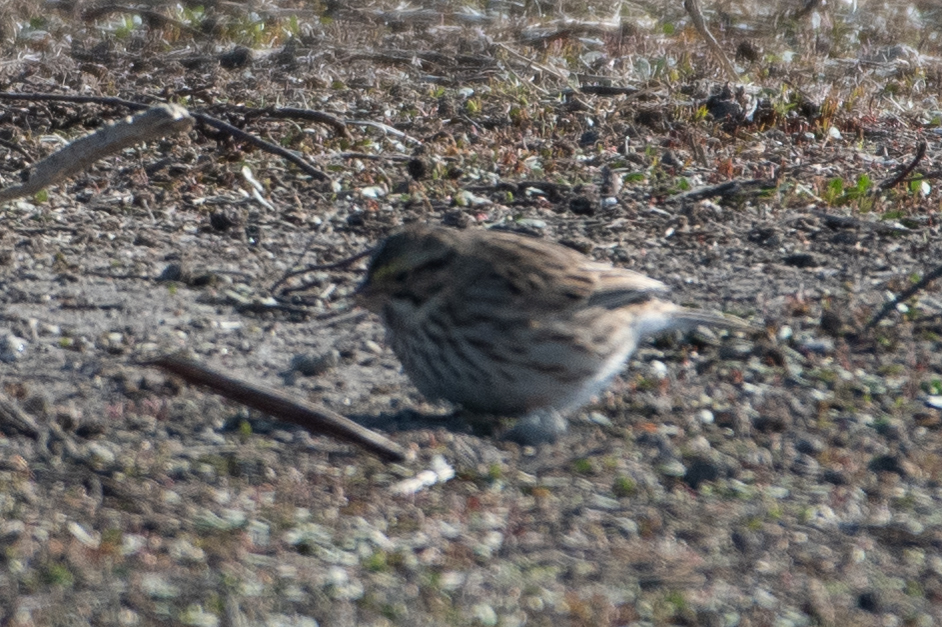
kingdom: Animalia
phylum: Chordata
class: Aves
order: Passeriformes
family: Passerellidae
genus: Passerculus
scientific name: Passerculus sandwichensis
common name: Savannah sparrow
